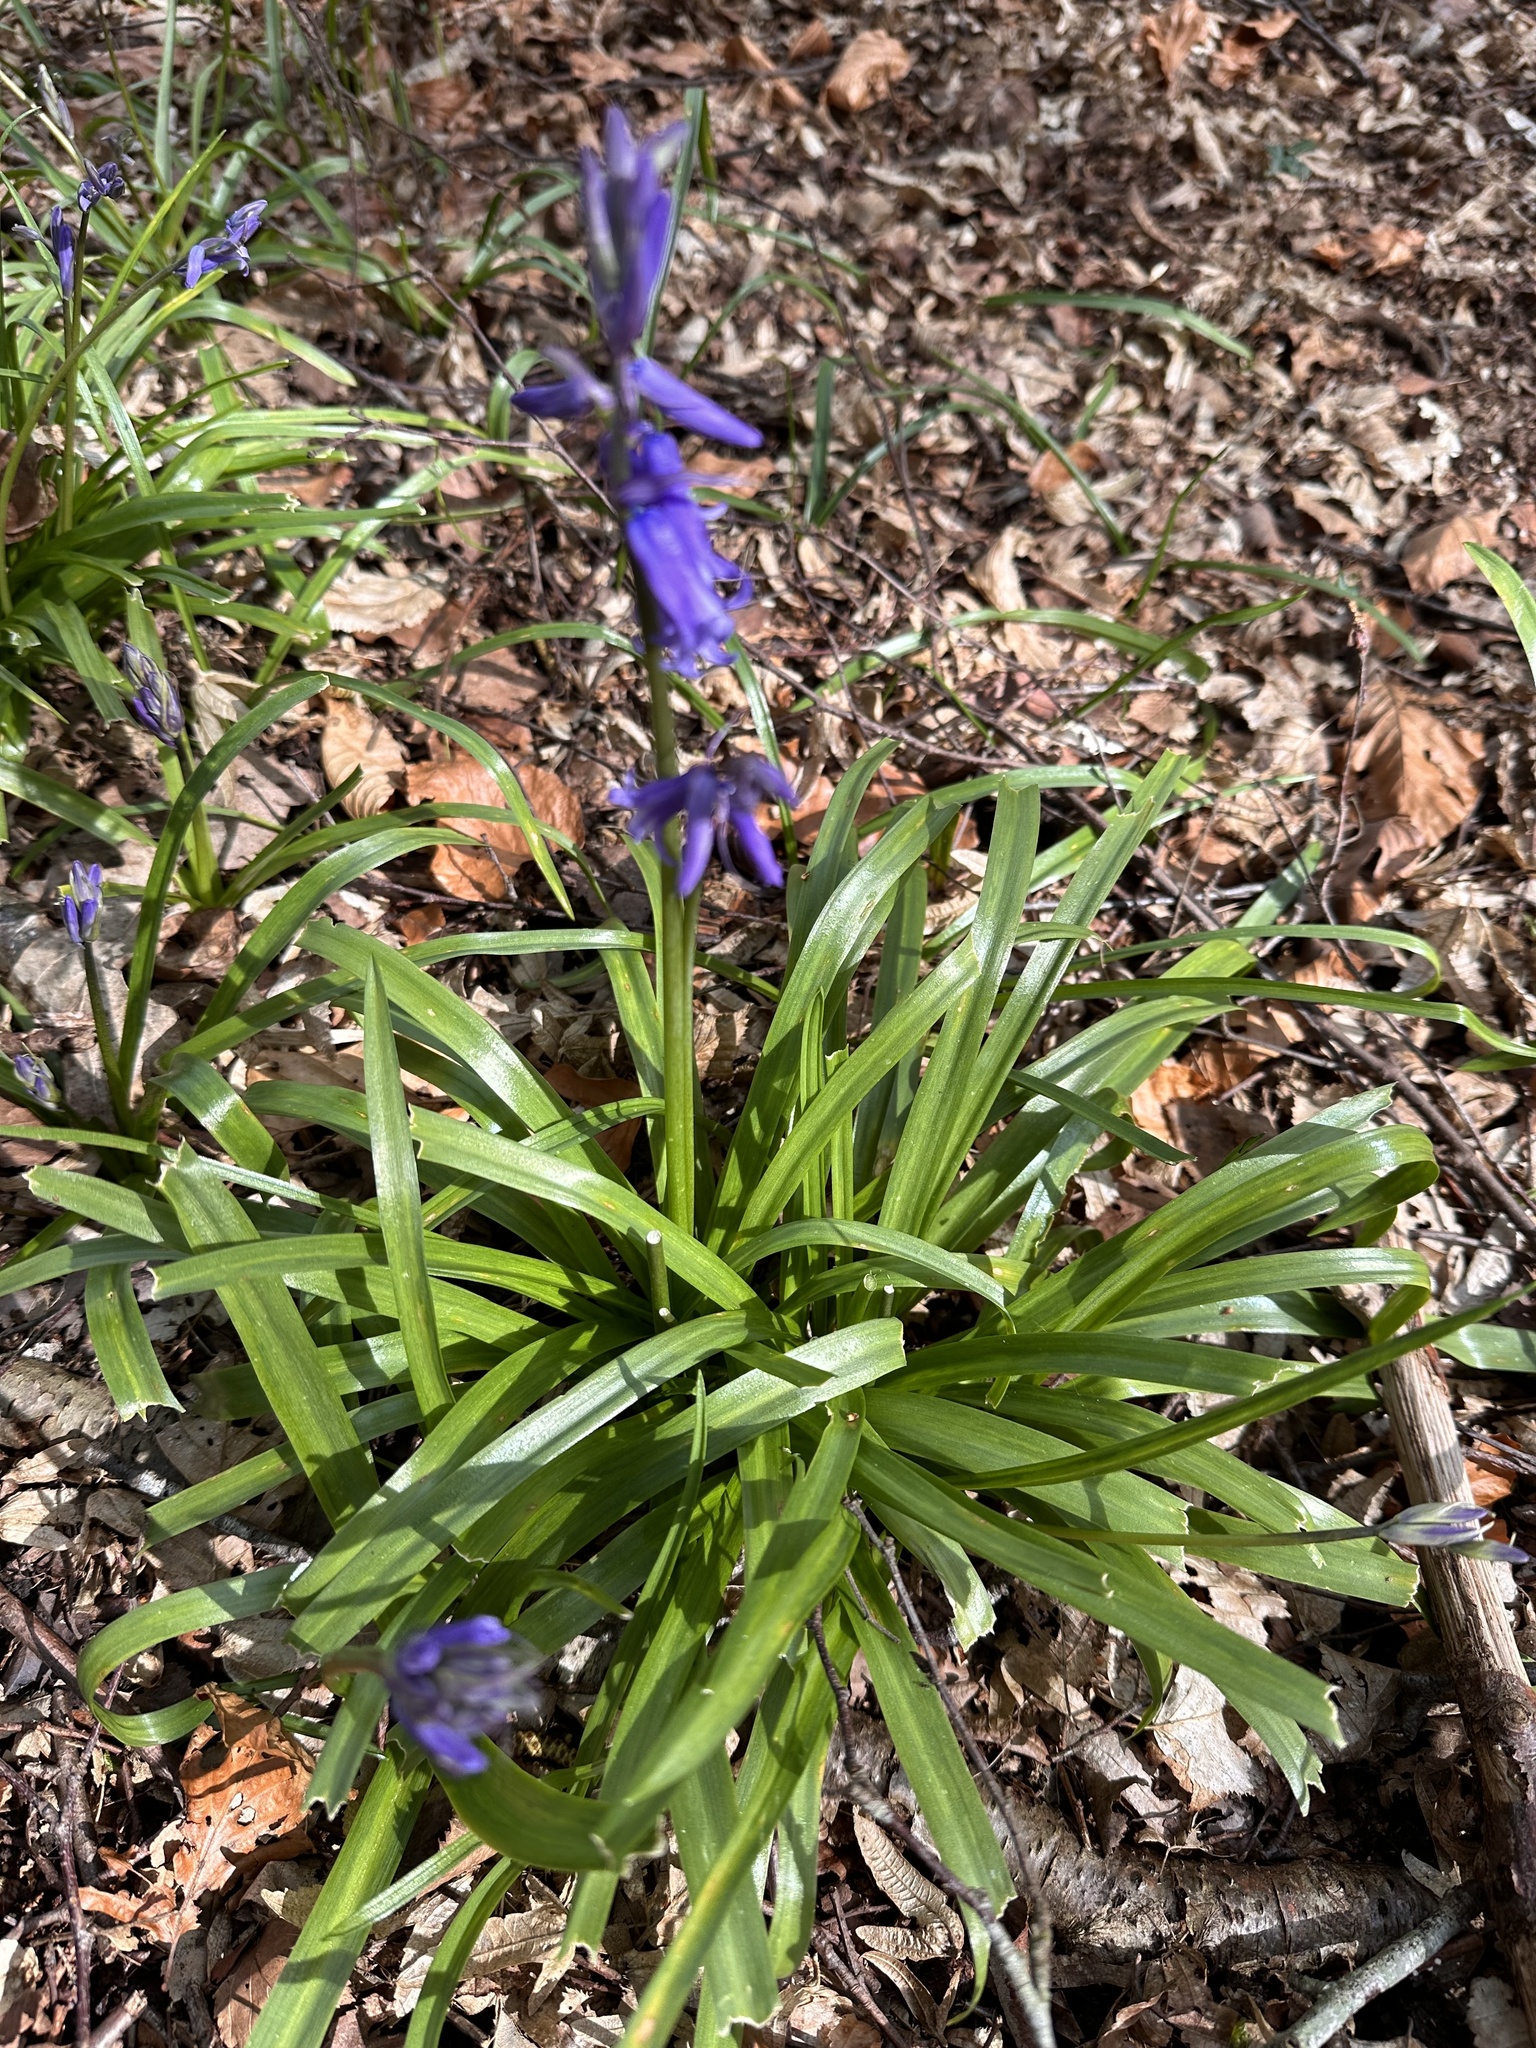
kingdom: Plantae
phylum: Tracheophyta
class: Liliopsida
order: Asparagales
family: Asparagaceae
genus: Hyacinthoides
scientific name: Hyacinthoides non-scripta
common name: Bluebell
